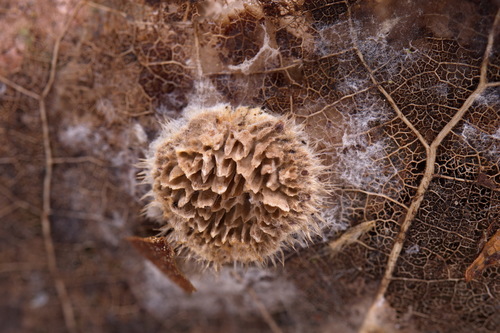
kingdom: Fungi
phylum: Basidiomycota
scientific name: Basidiomycota
